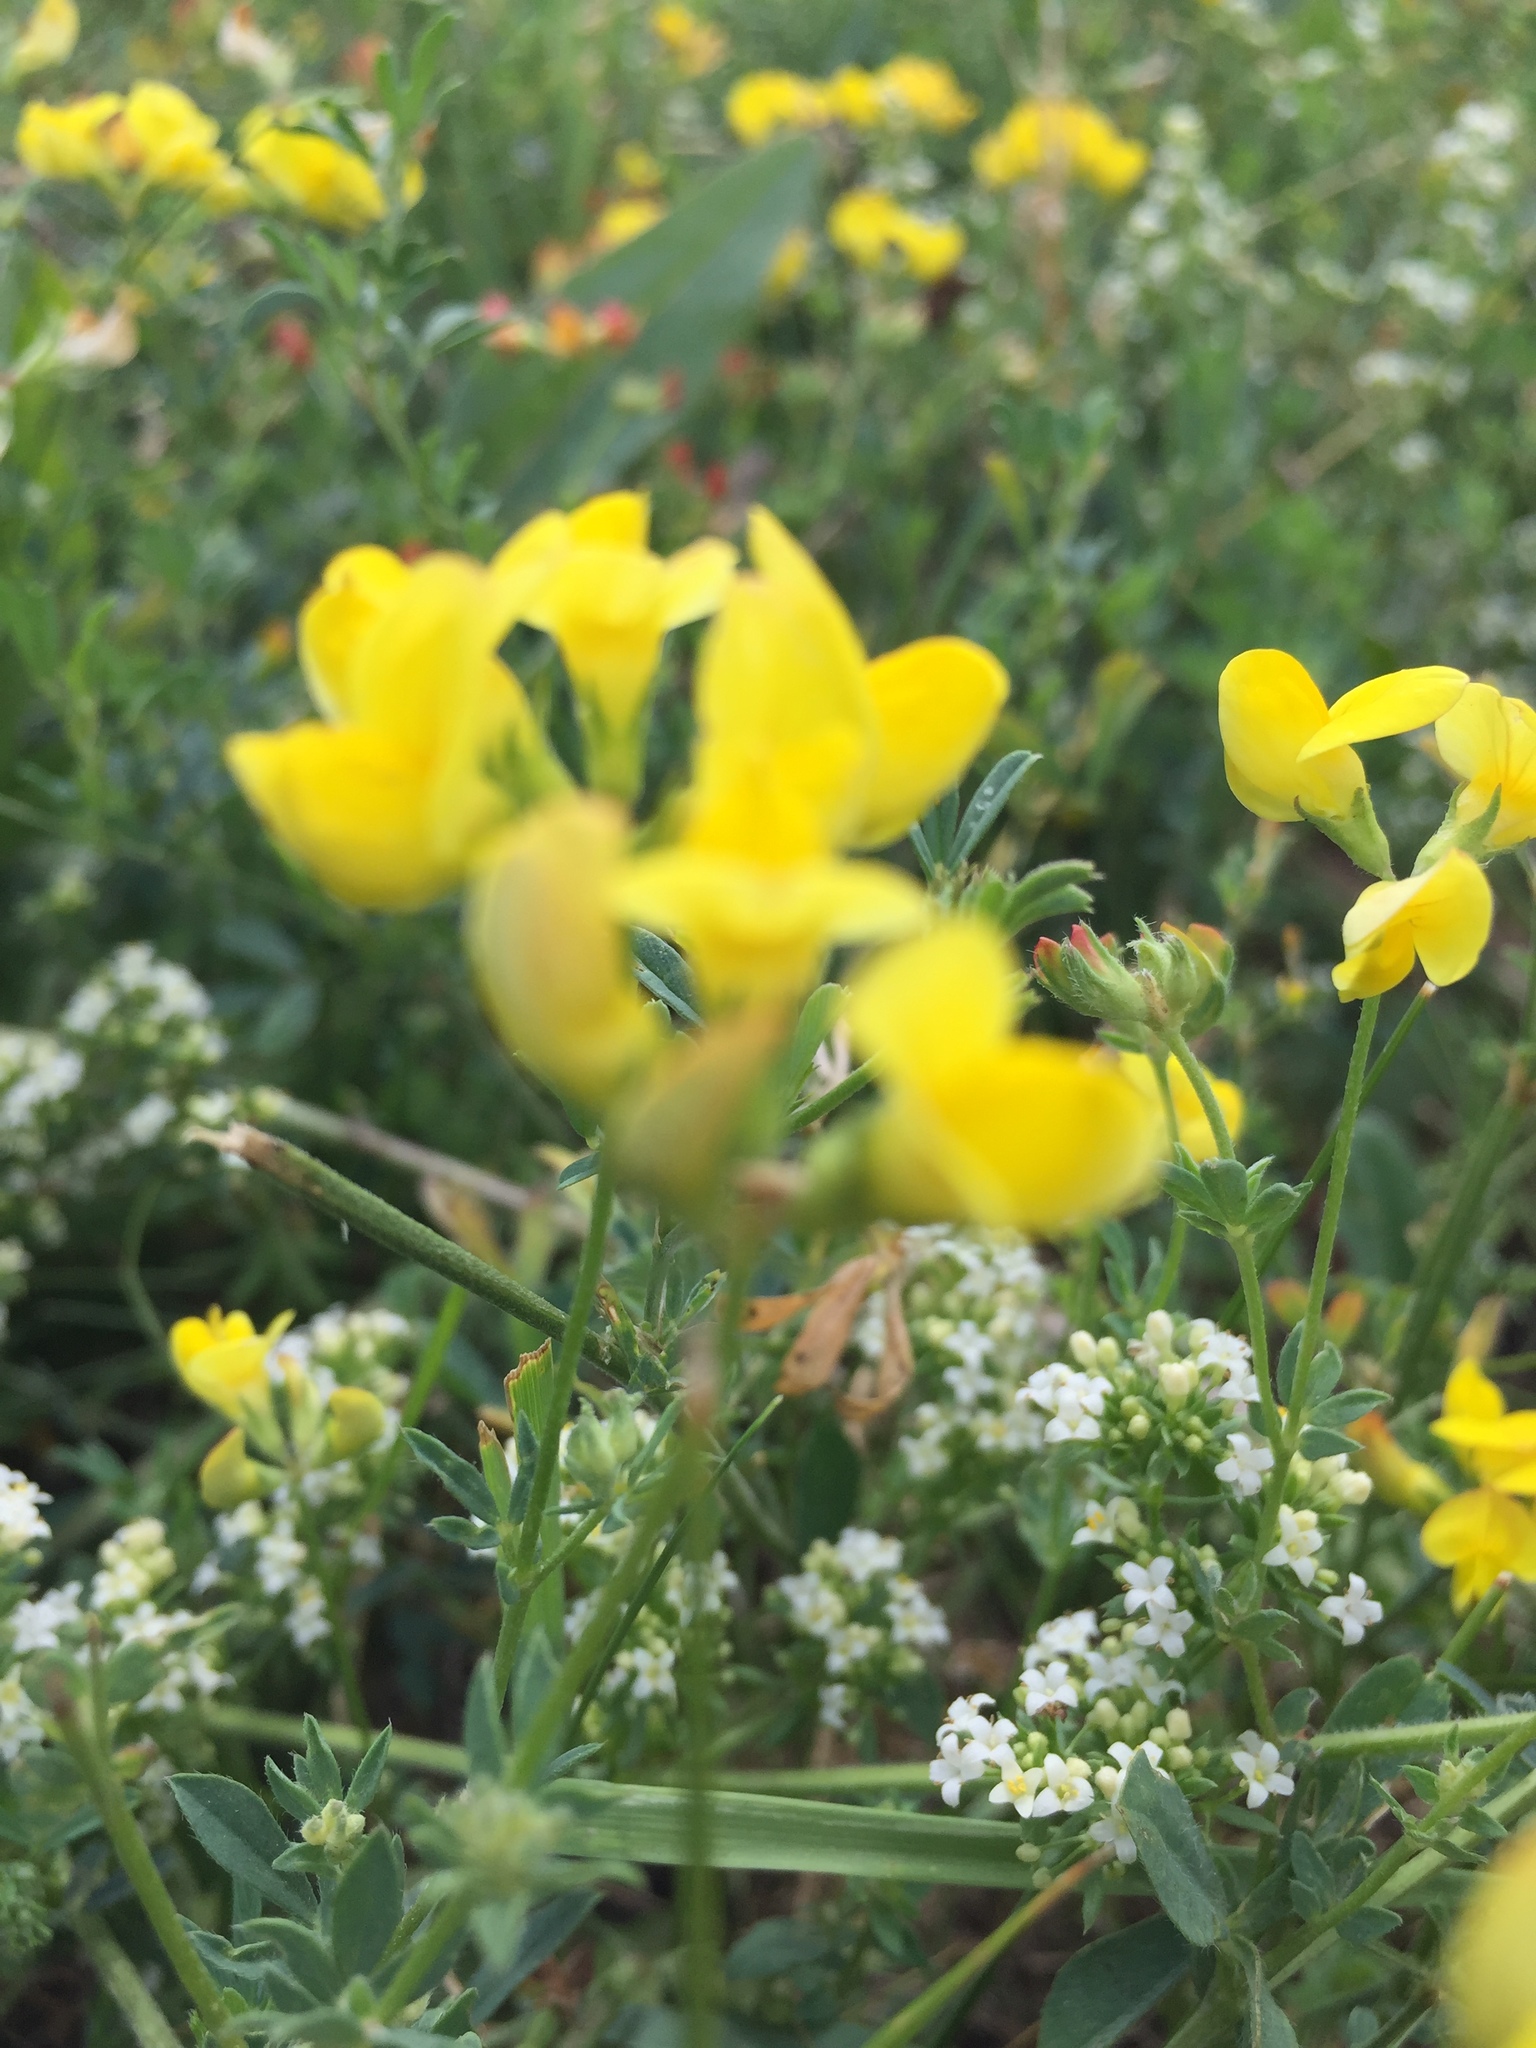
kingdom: Plantae
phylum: Tracheophyta
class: Magnoliopsida
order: Fabales
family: Fabaceae
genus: Lotus
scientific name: Lotus corniculatus
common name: Common bird's-foot-trefoil
